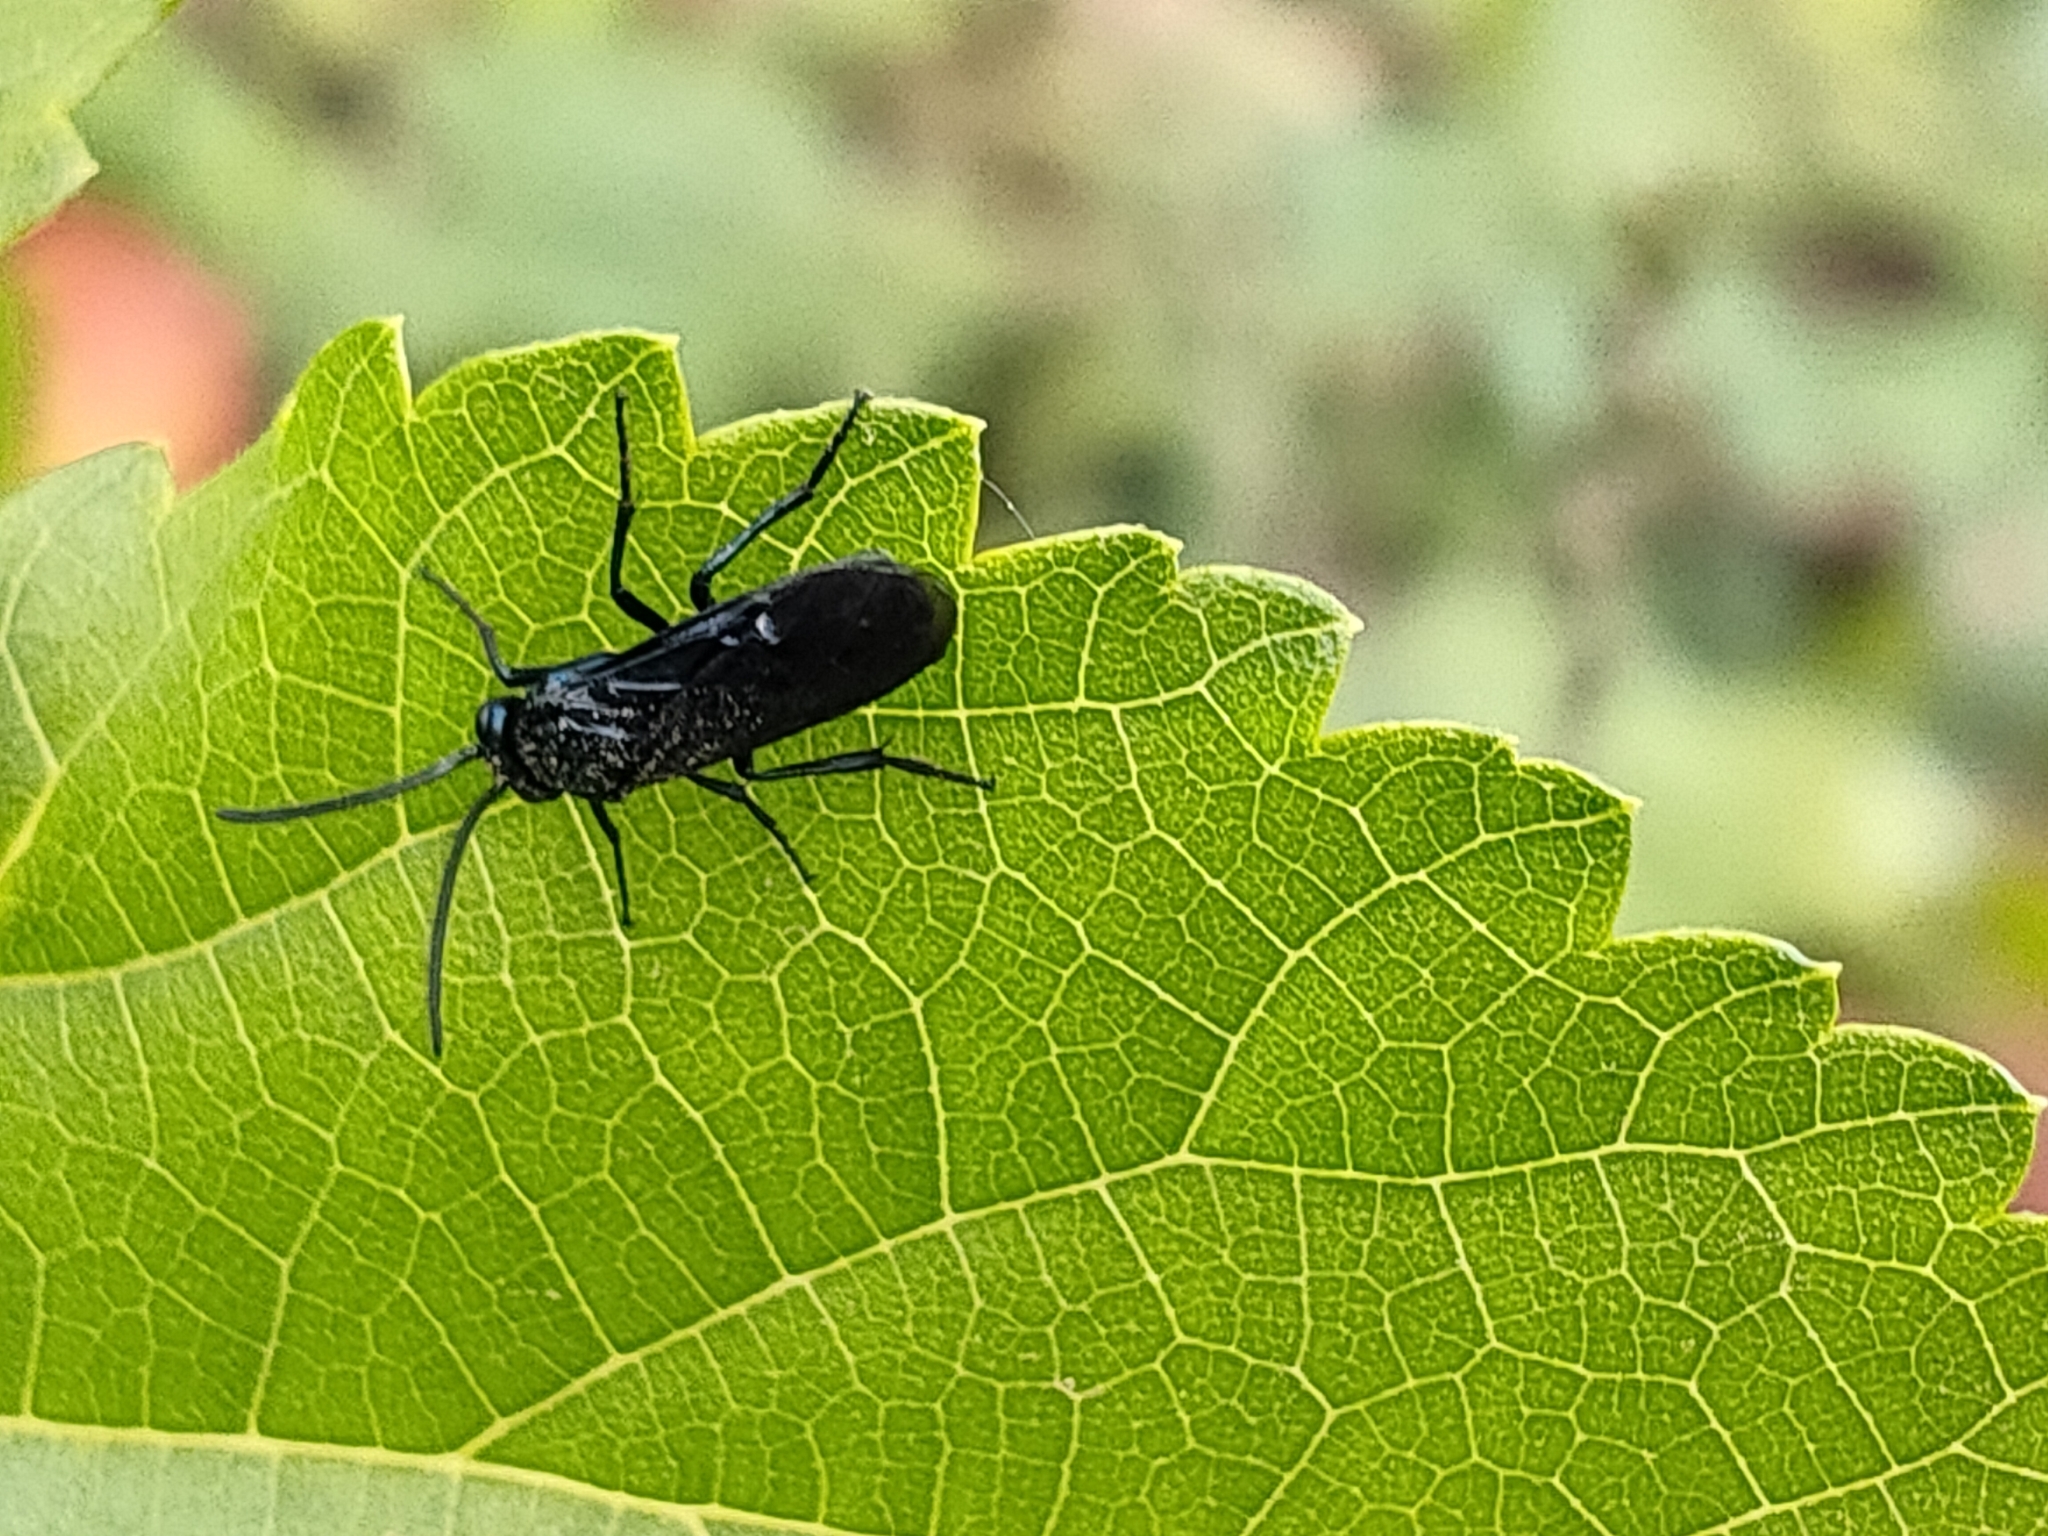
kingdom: Animalia
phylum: Arthropoda
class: Insecta
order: Hymenoptera
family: Argidae
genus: Arge
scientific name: Arge similis
